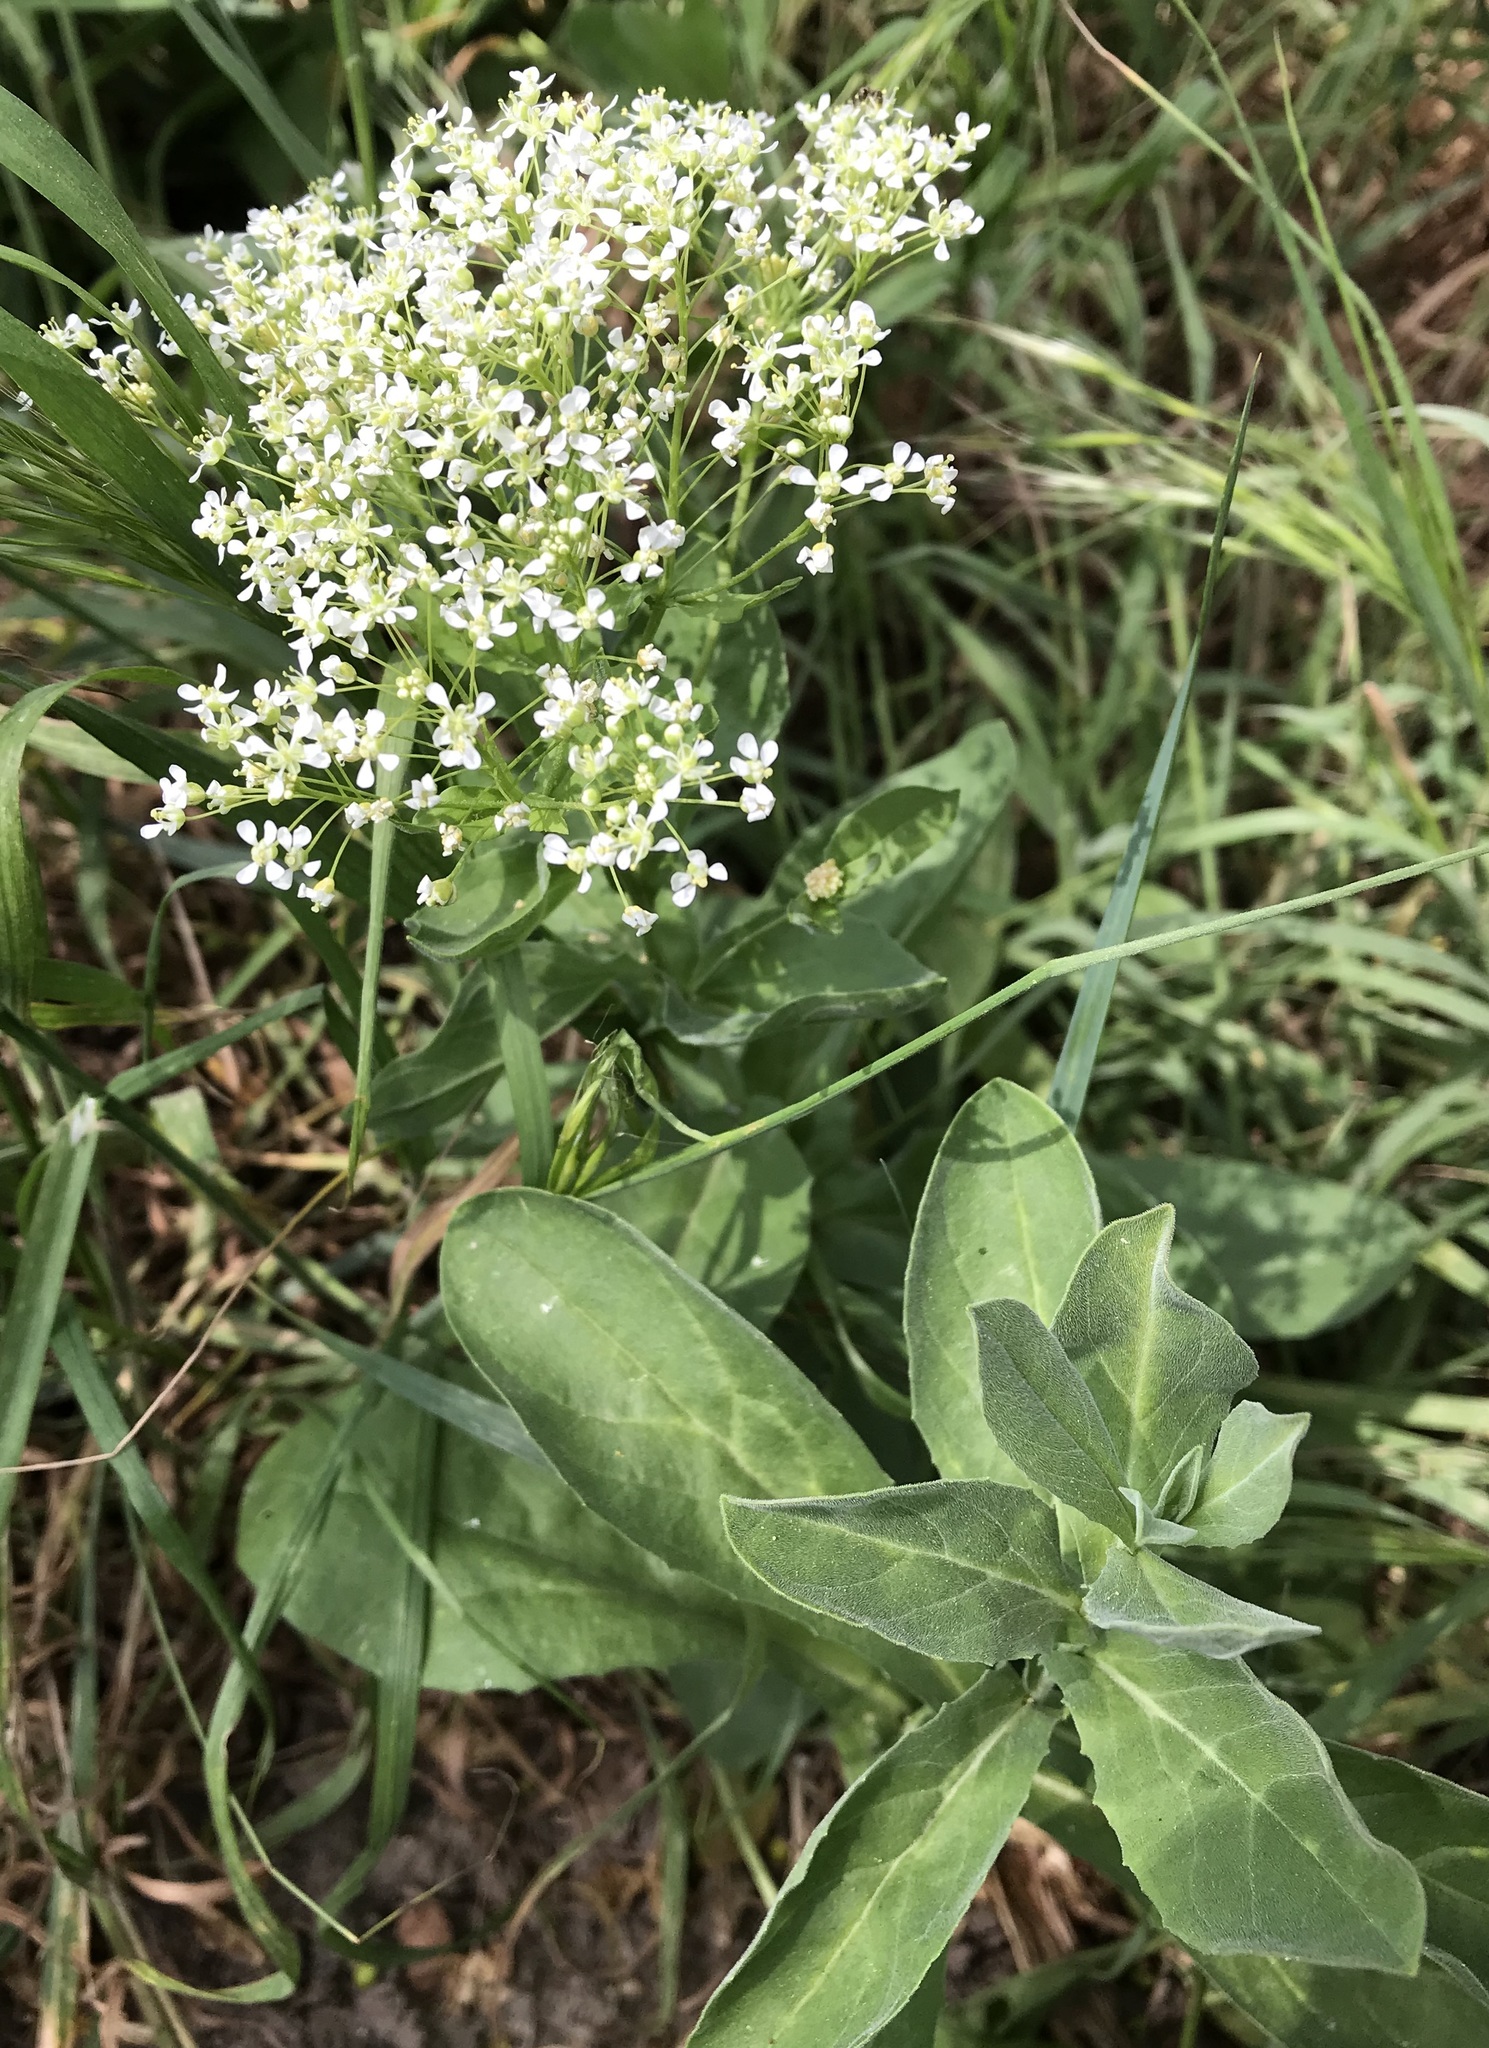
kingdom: Plantae
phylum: Tracheophyta
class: Magnoliopsida
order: Brassicales
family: Brassicaceae
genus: Lepidium
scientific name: Lepidium draba
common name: Hoary cress
